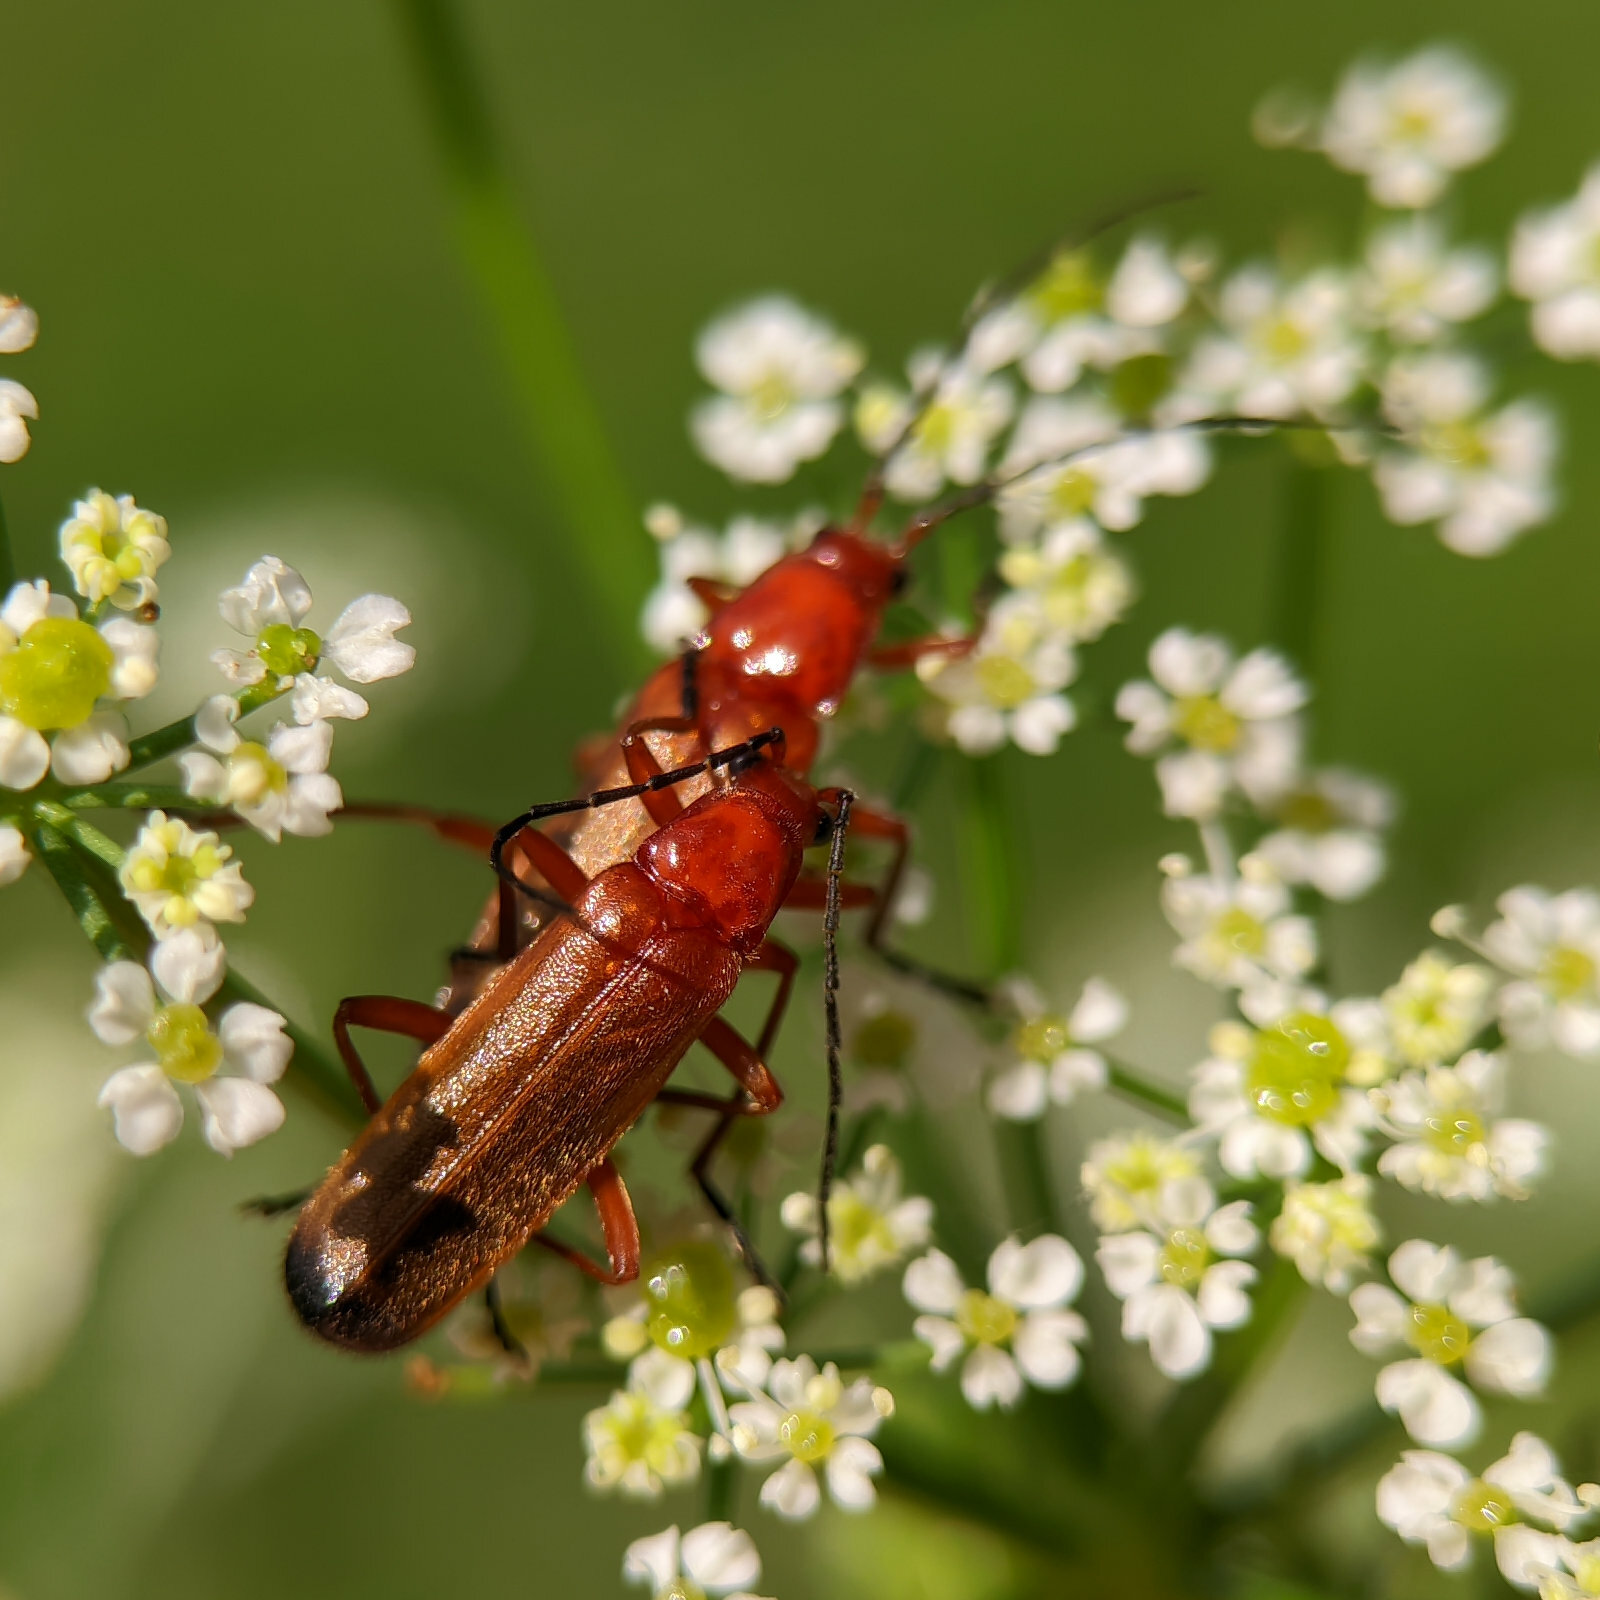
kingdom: Animalia
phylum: Arthropoda
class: Insecta
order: Coleoptera
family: Cantharidae
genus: Rhagonycha
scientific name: Rhagonycha fulva
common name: Common red soldier beetle
